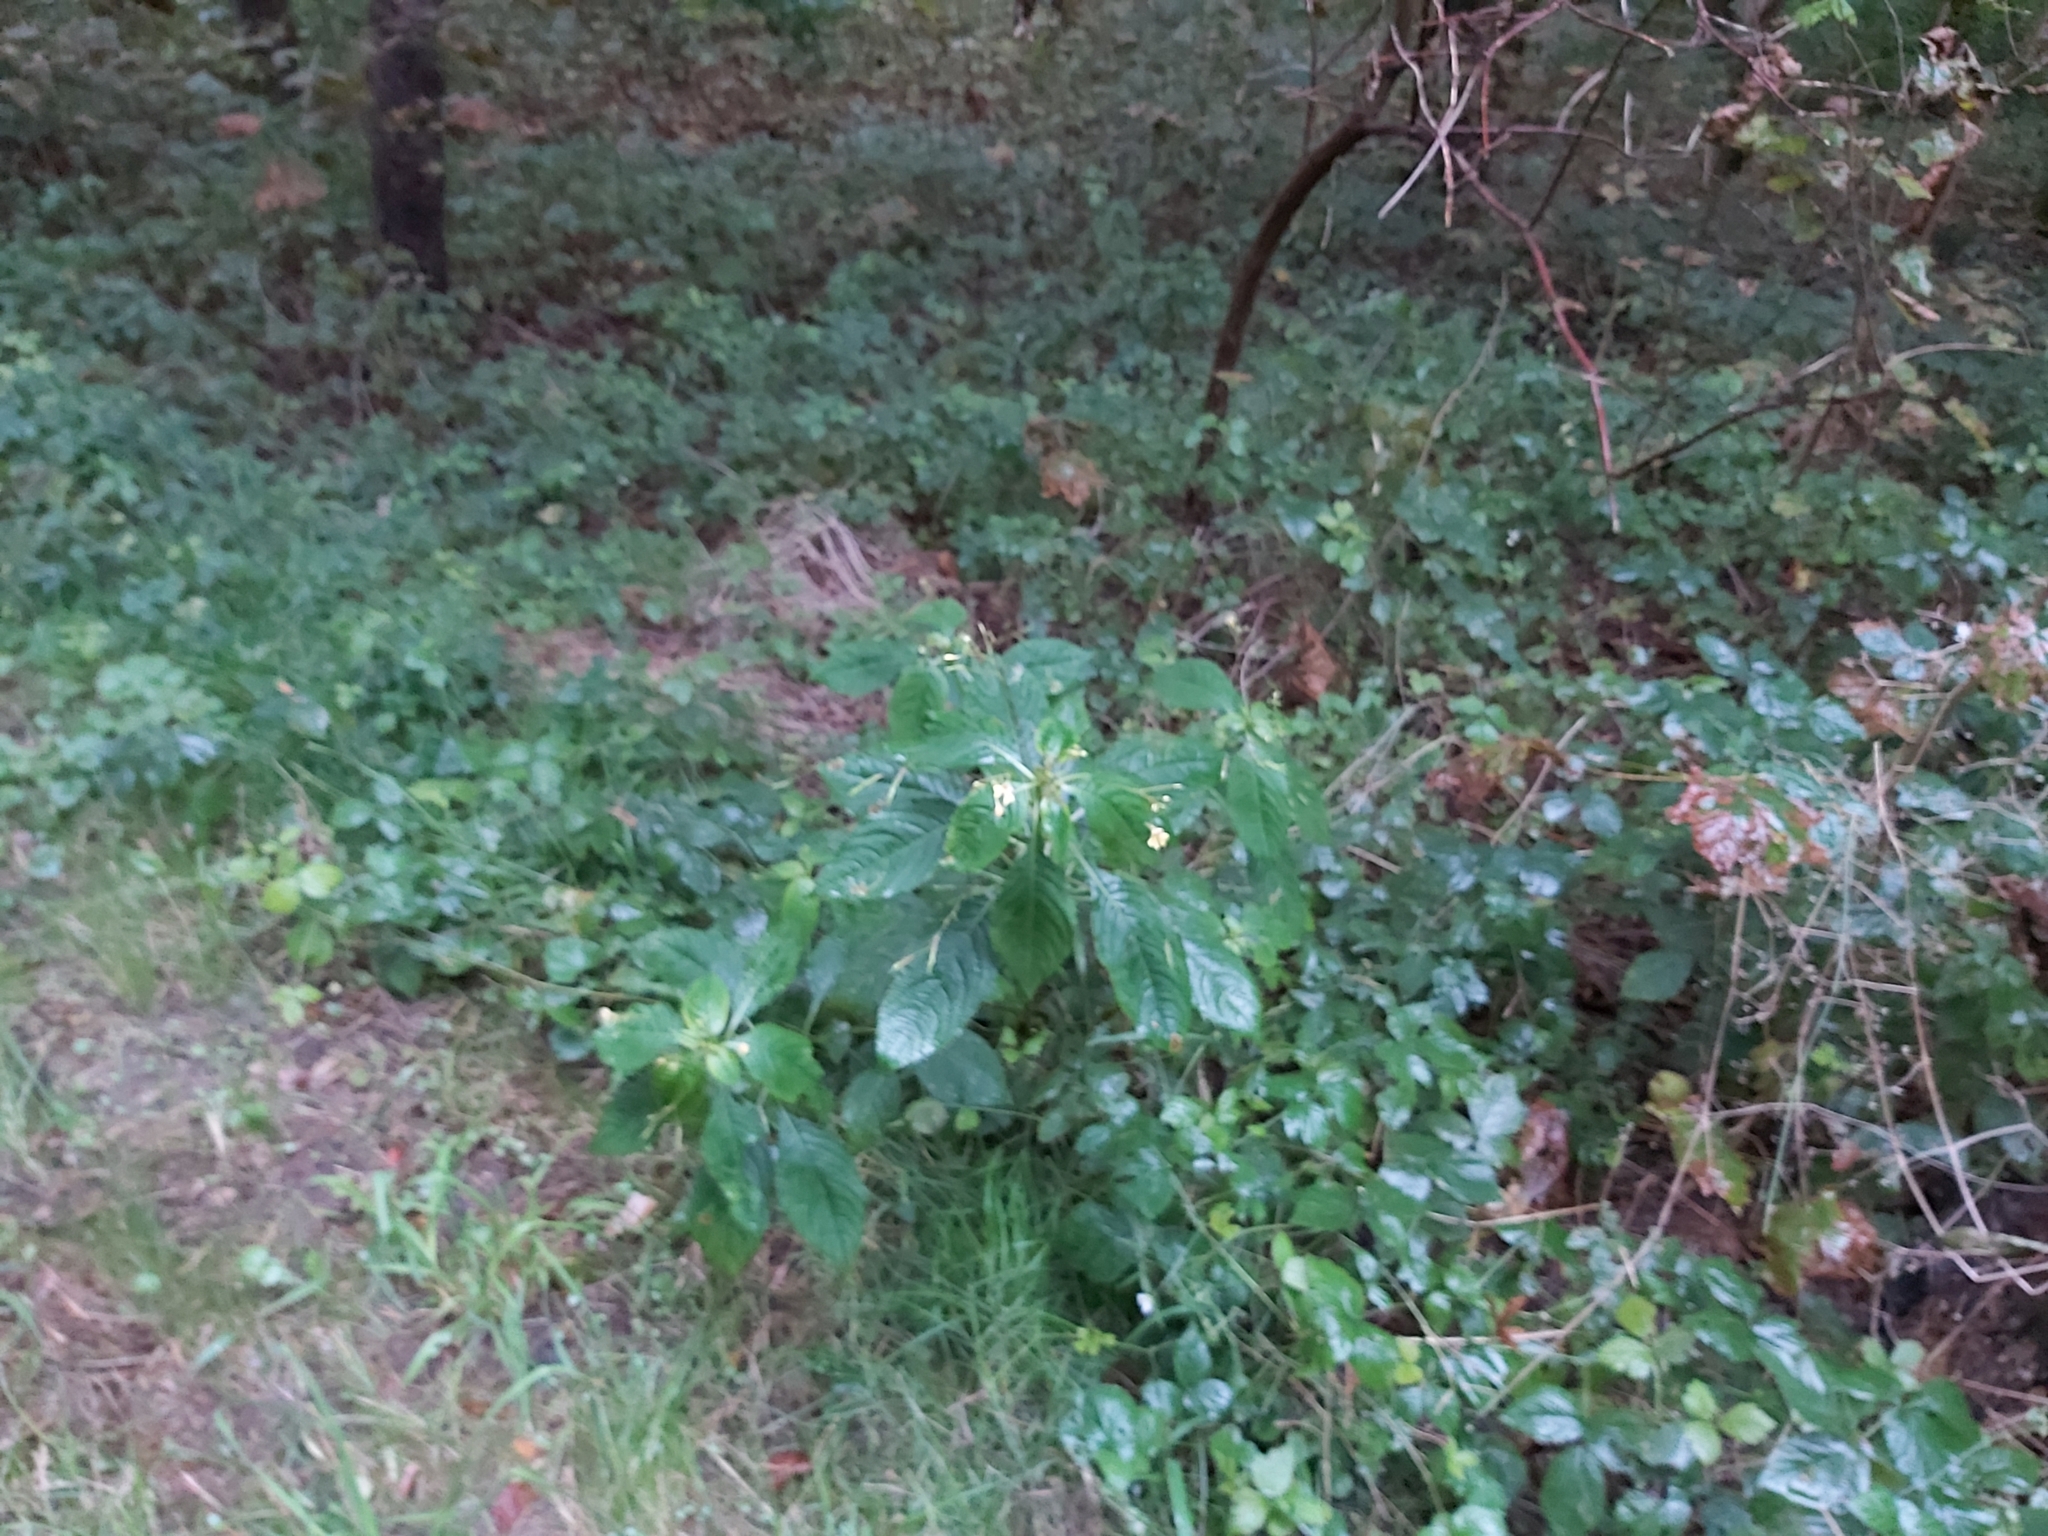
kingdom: Plantae
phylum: Tracheophyta
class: Magnoliopsida
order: Ericales
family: Balsaminaceae
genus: Impatiens
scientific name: Impatiens parviflora
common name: Small balsam
